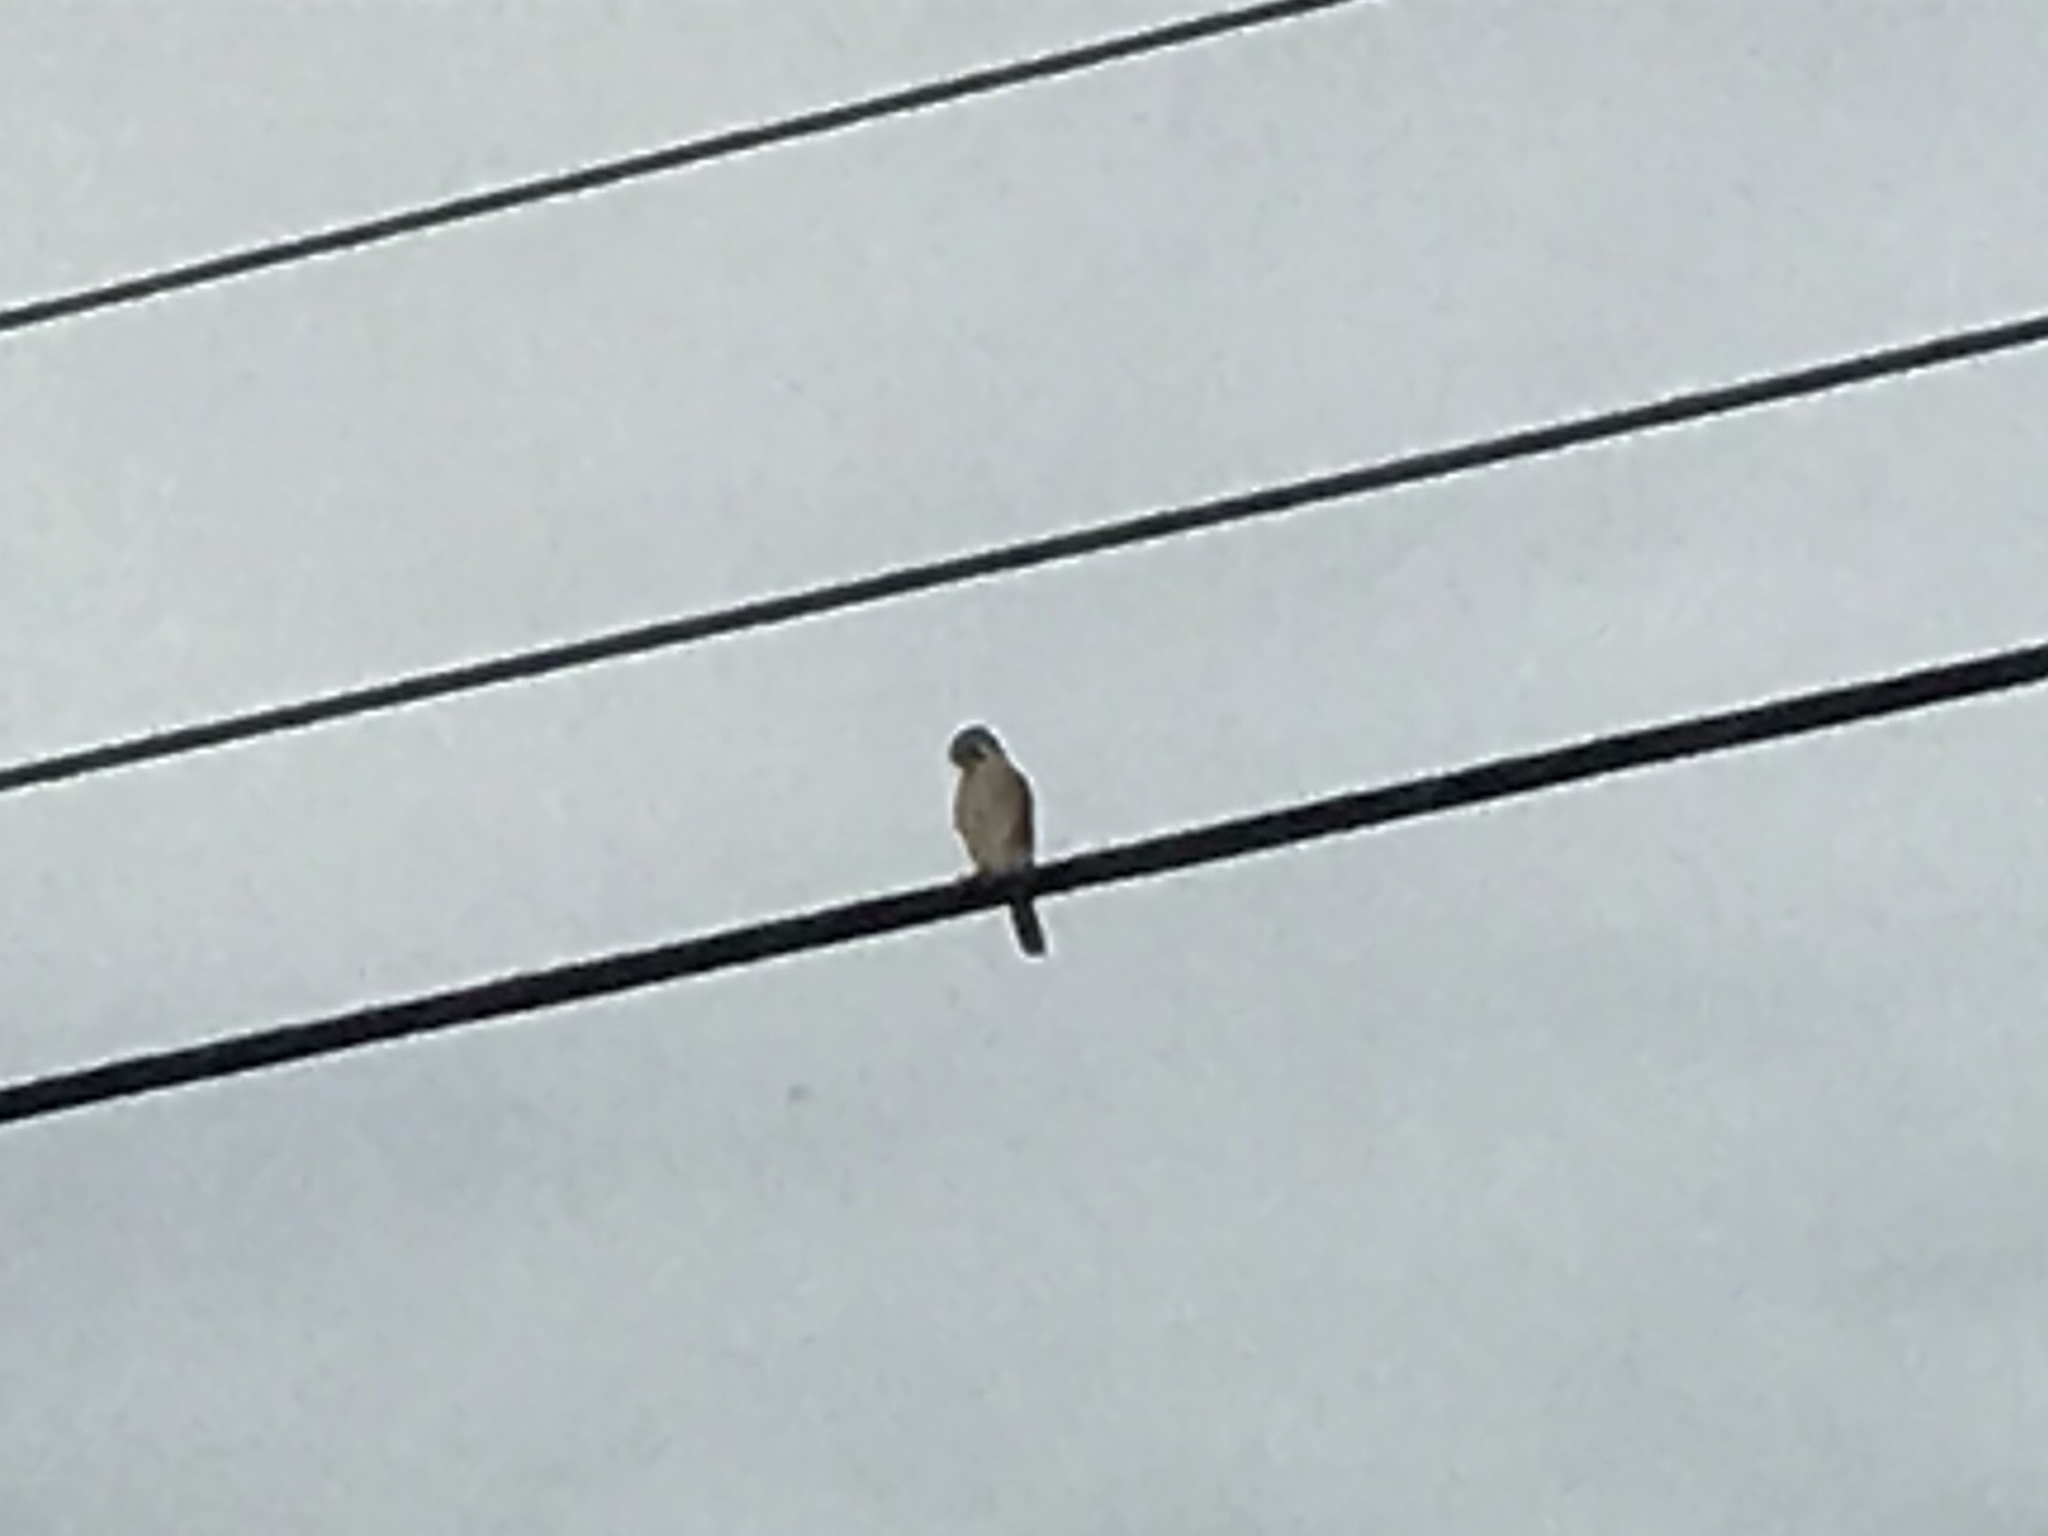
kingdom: Animalia
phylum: Chordata
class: Aves
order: Falconiformes
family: Falconidae
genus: Falco
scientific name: Falco sparverius
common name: American kestrel
